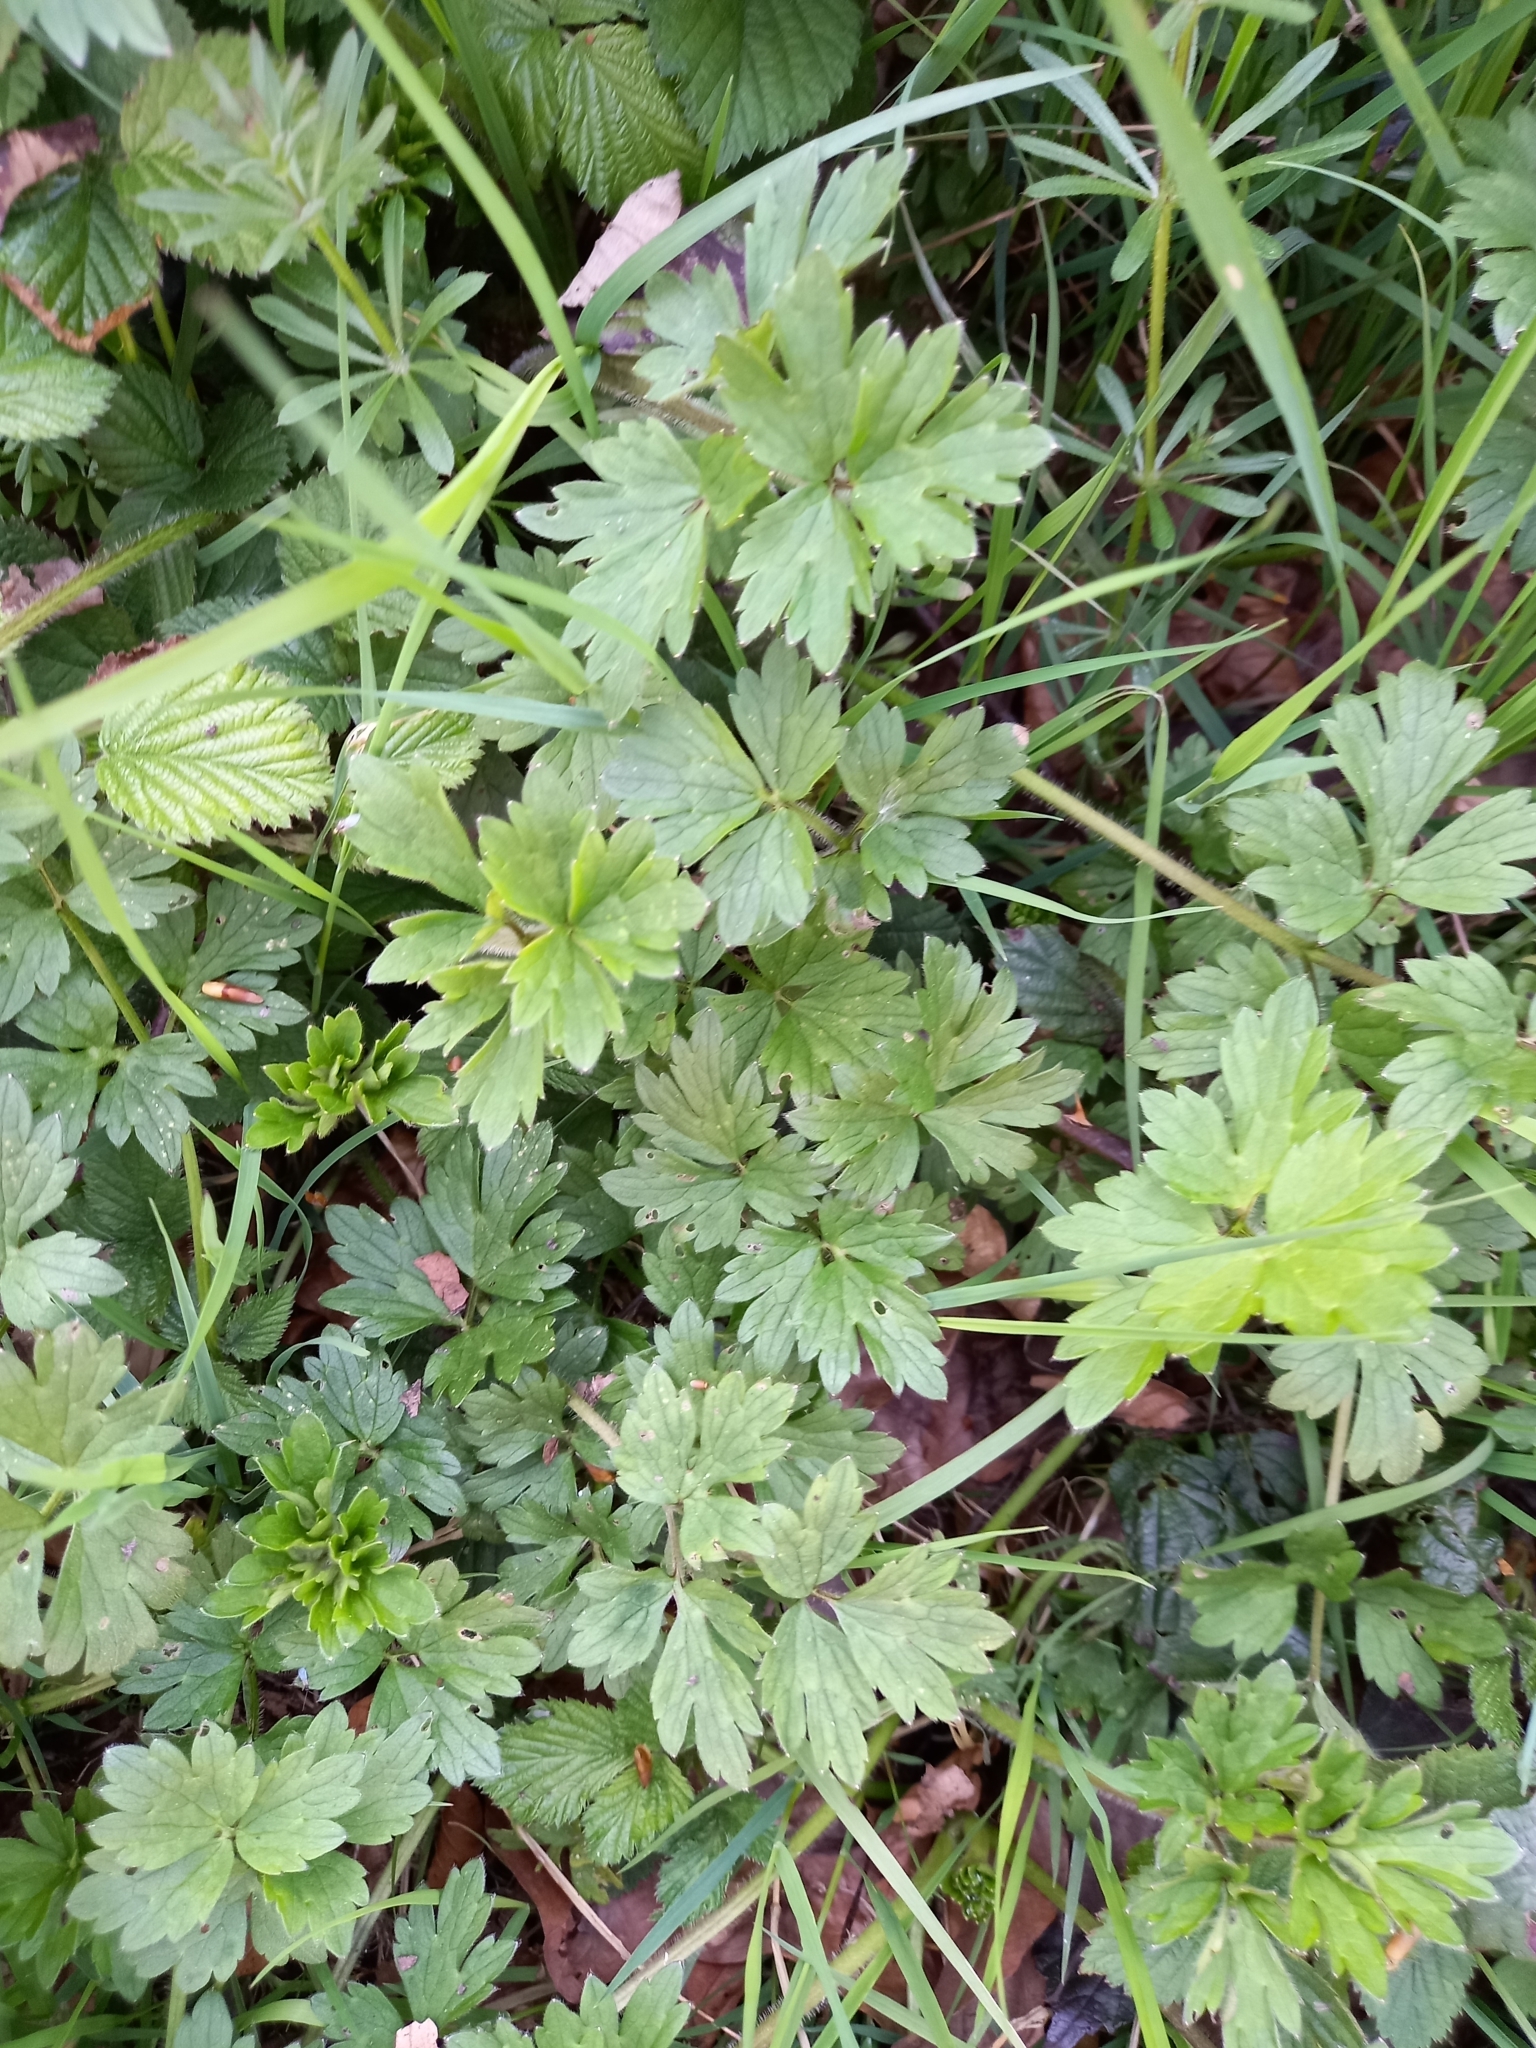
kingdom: Plantae
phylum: Tracheophyta
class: Magnoliopsida
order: Ranunculales
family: Ranunculaceae
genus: Ranunculus
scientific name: Ranunculus repens
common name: Creeping buttercup
